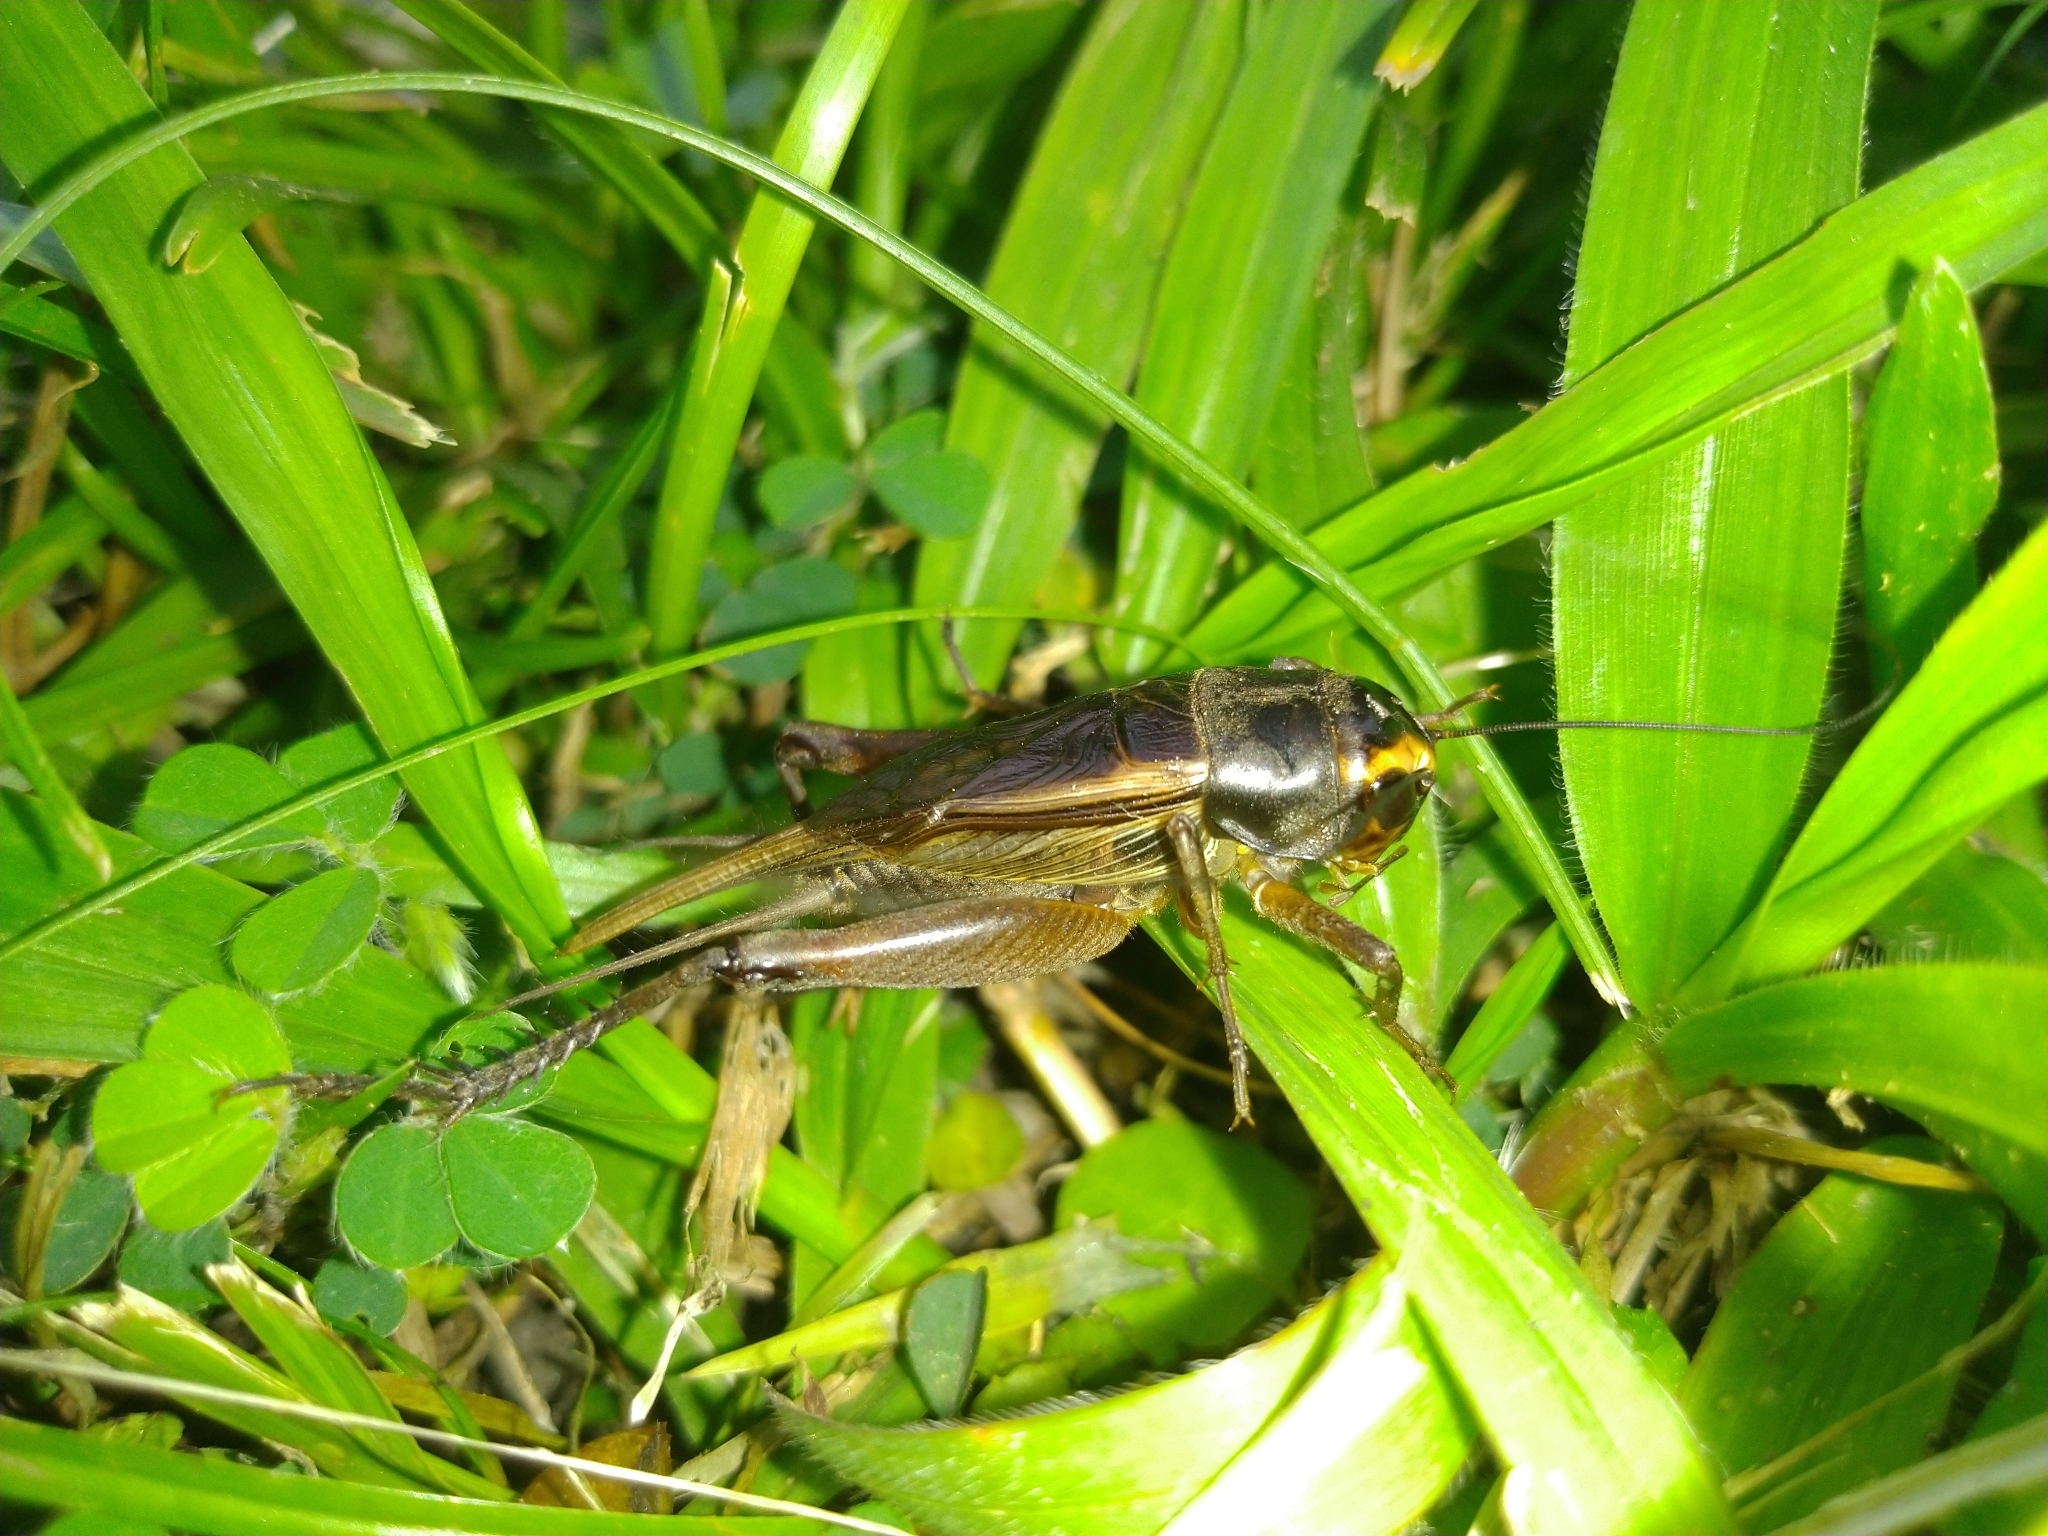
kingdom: Animalia
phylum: Arthropoda
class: Insecta
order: Orthoptera
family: Gryllidae
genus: Teleogryllus
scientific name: Teleogryllus occipitalis
